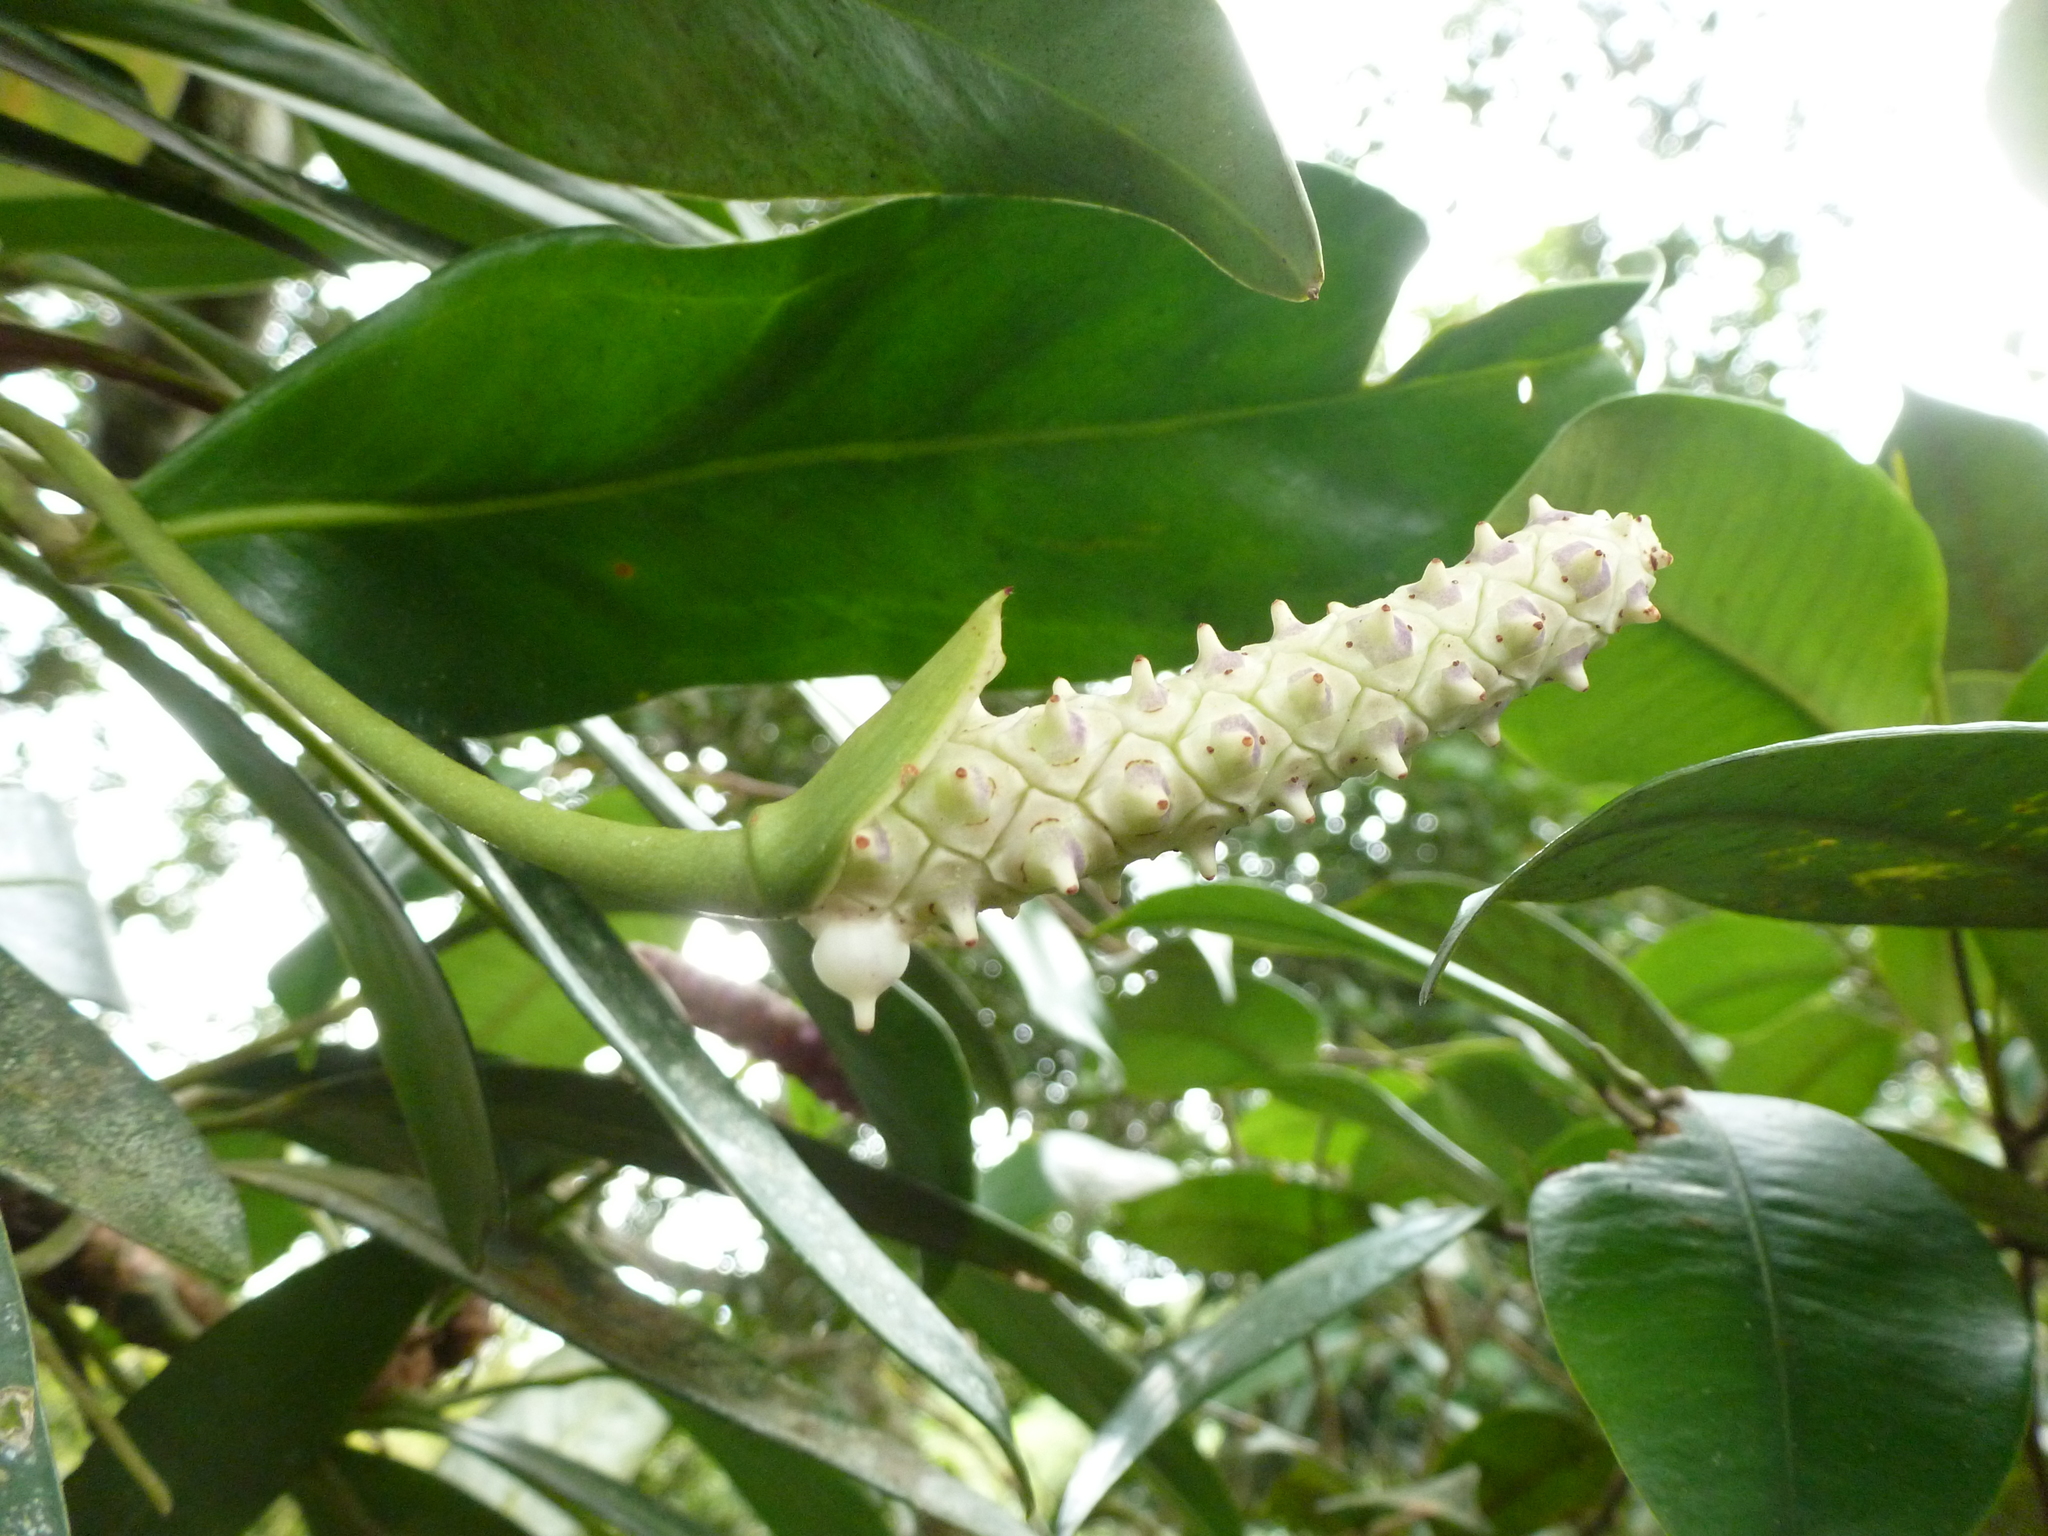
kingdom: Plantae
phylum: Tracheophyta
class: Liliopsida
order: Alismatales
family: Araceae
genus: Anthurium
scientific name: Anthurium obtusum
